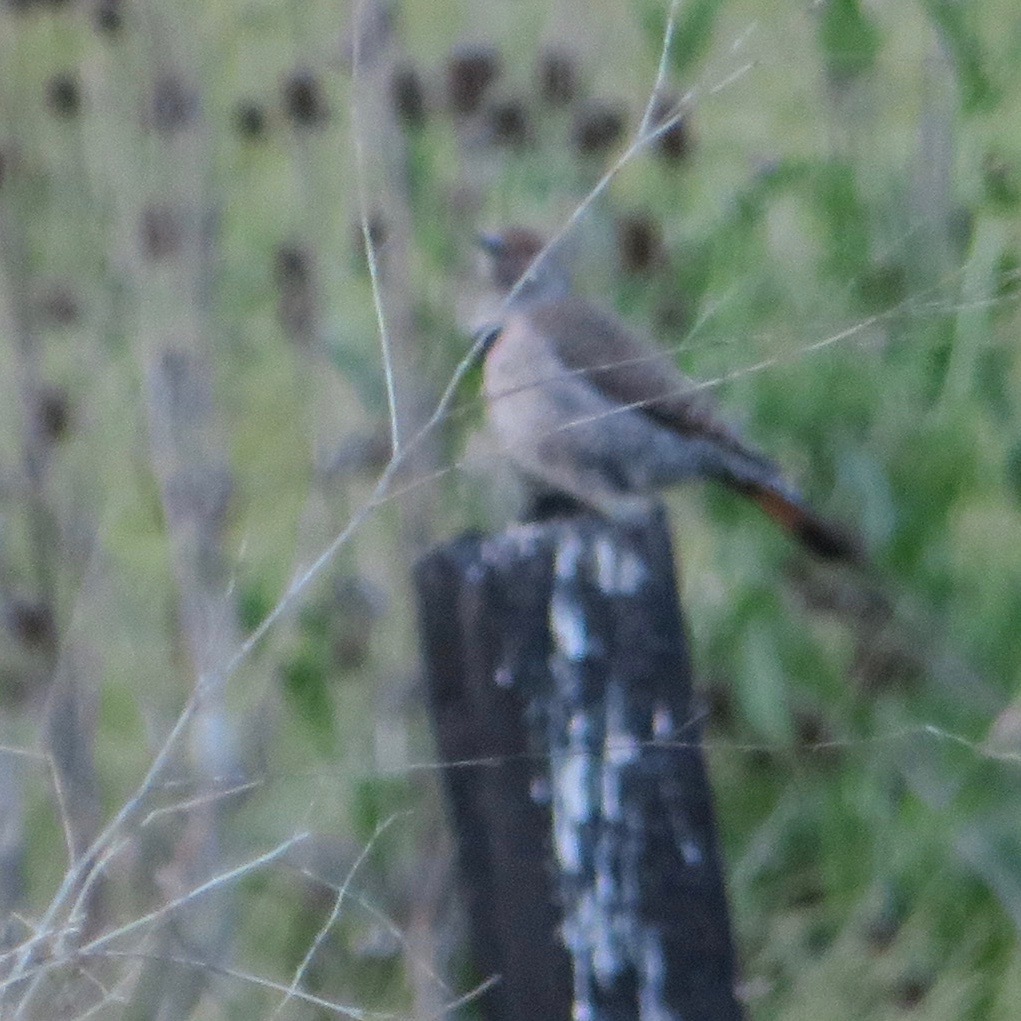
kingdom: Animalia
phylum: Chordata
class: Aves
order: Piciformes
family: Picidae
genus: Colaptes
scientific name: Colaptes auratus
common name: Northern flicker
